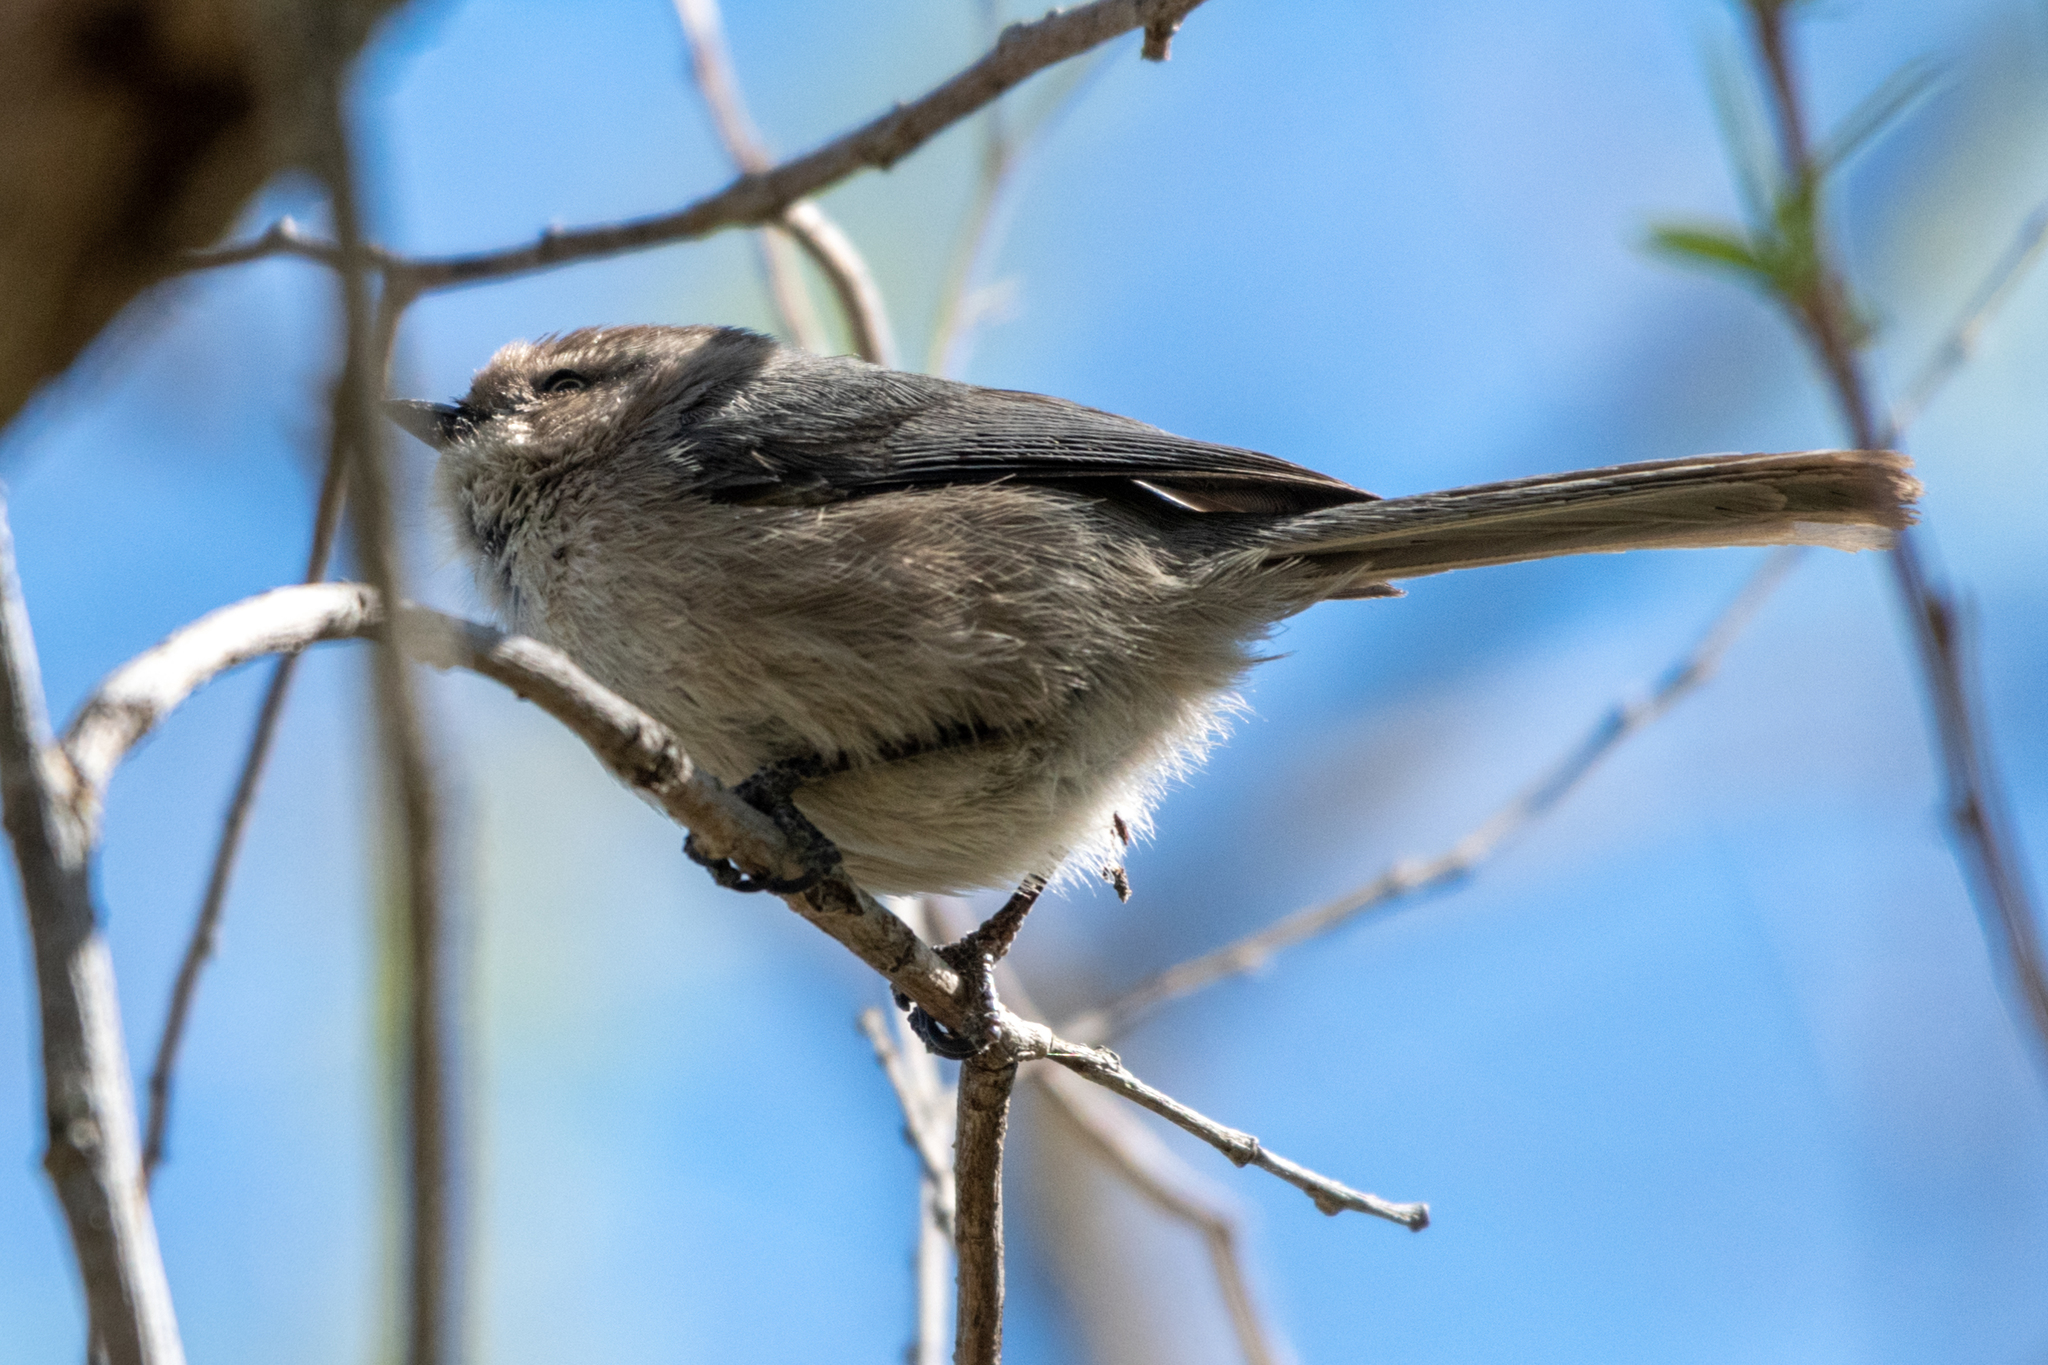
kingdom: Animalia
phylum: Chordata
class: Aves
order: Passeriformes
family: Aegithalidae
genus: Psaltriparus
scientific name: Psaltriparus minimus
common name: American bushtit
